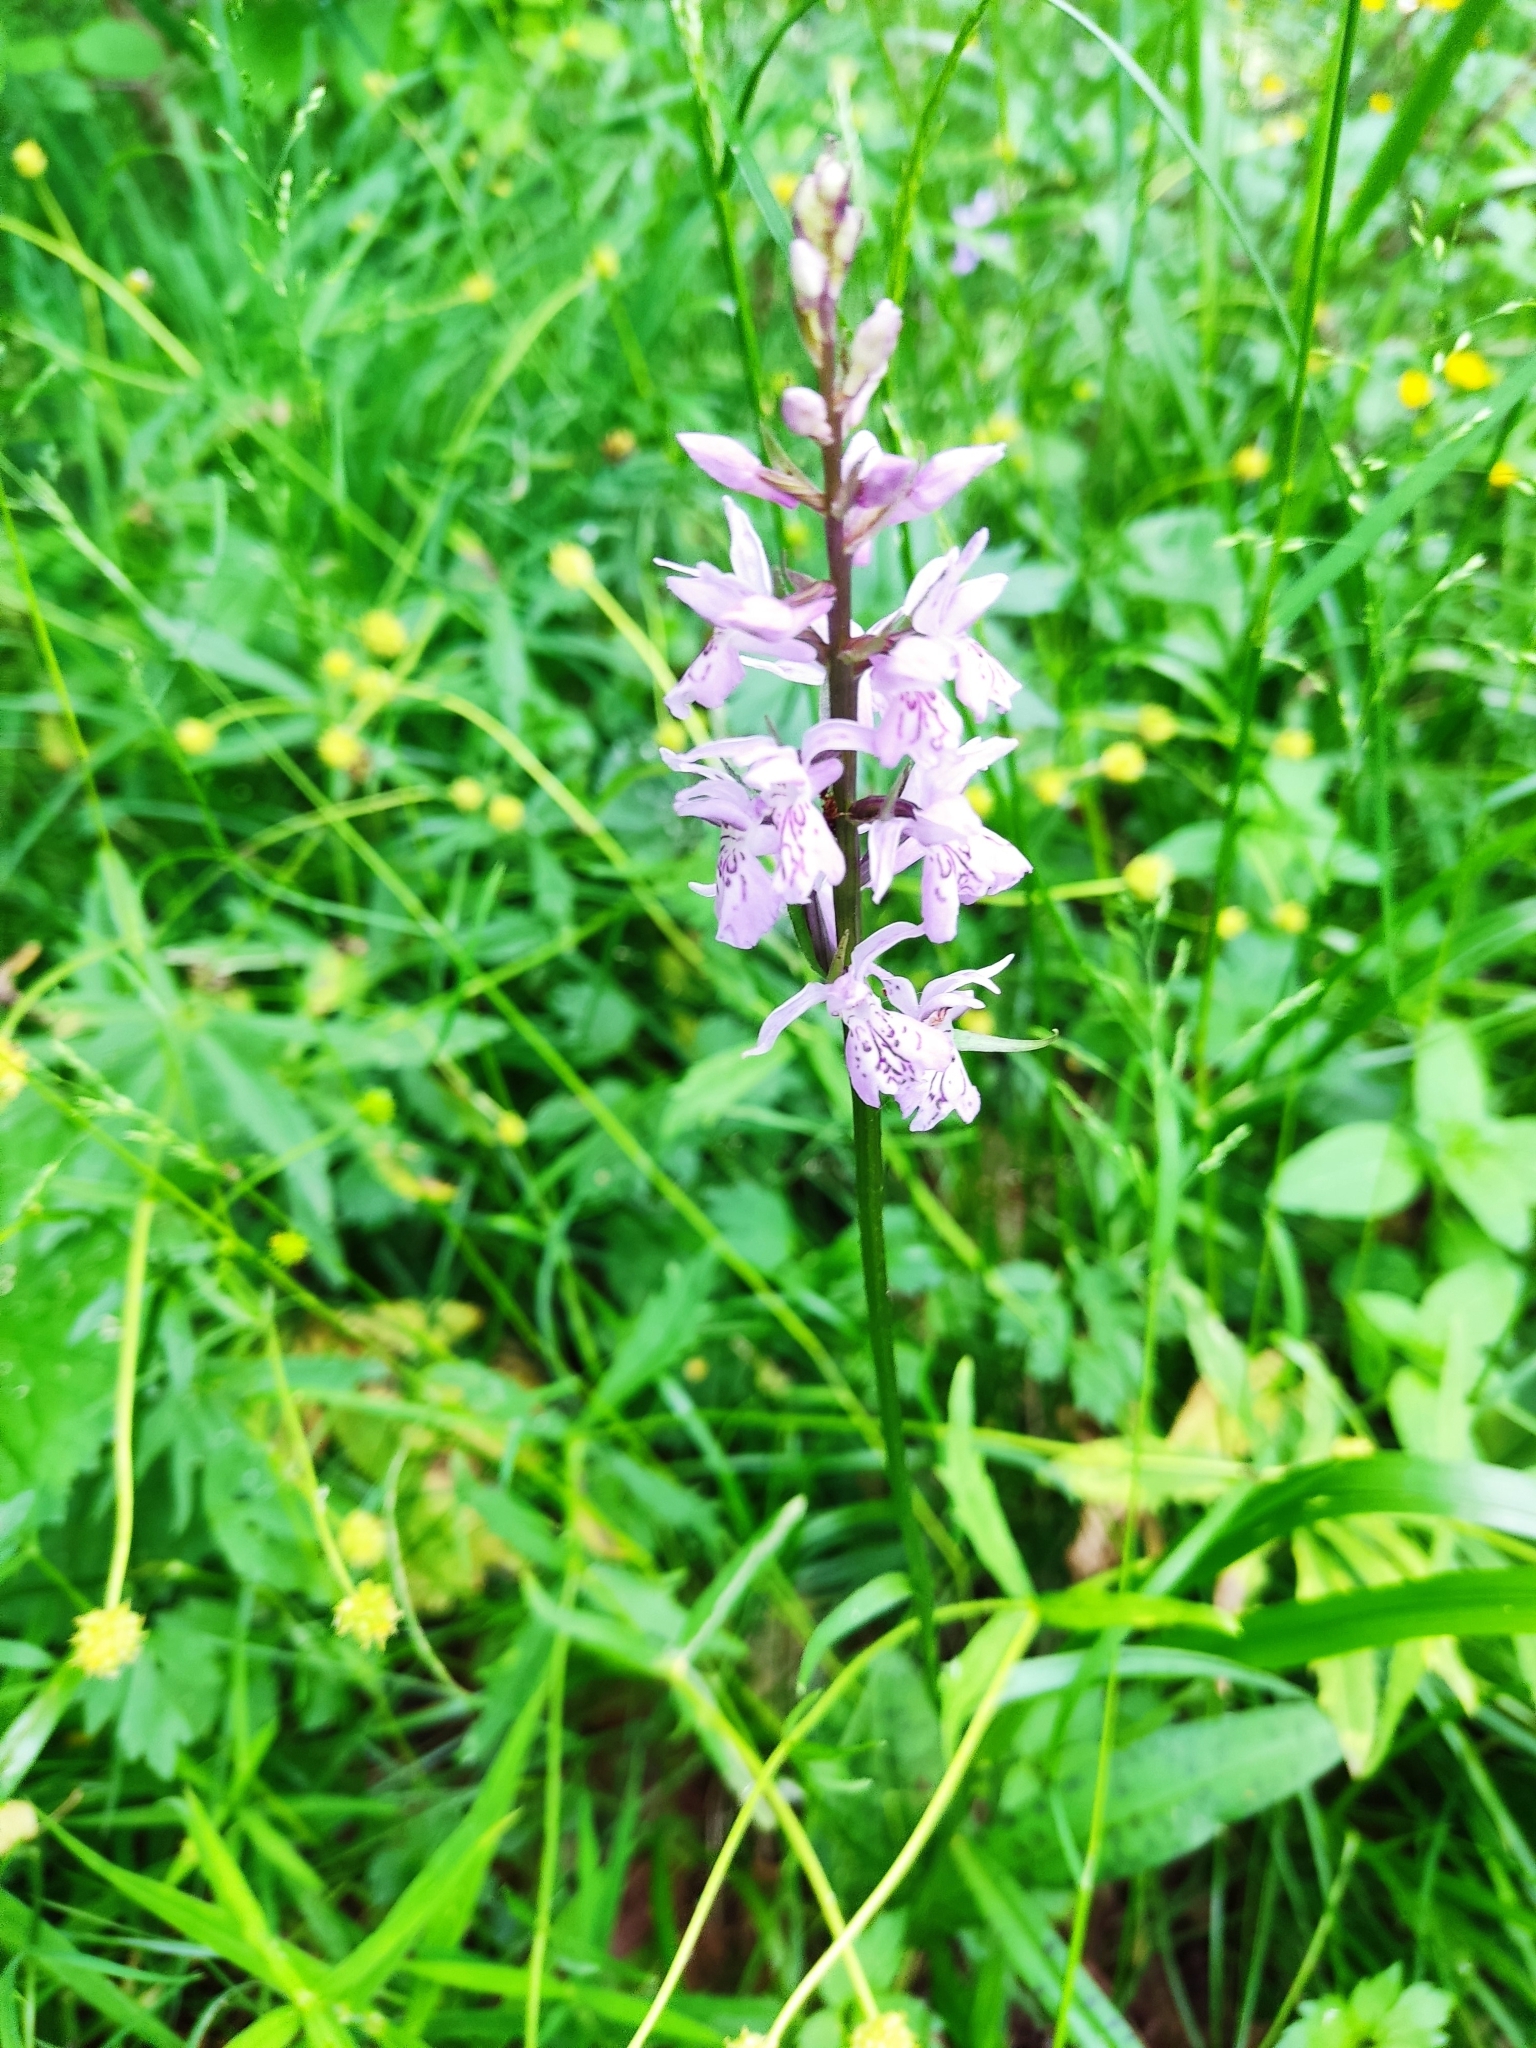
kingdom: Plantae
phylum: Tracheophyta
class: Liliopsida
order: Asparagales
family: Orchidaceae
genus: Dactylorhiza
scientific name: Dactylorhiza maculata
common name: Heath spotted-orchid
